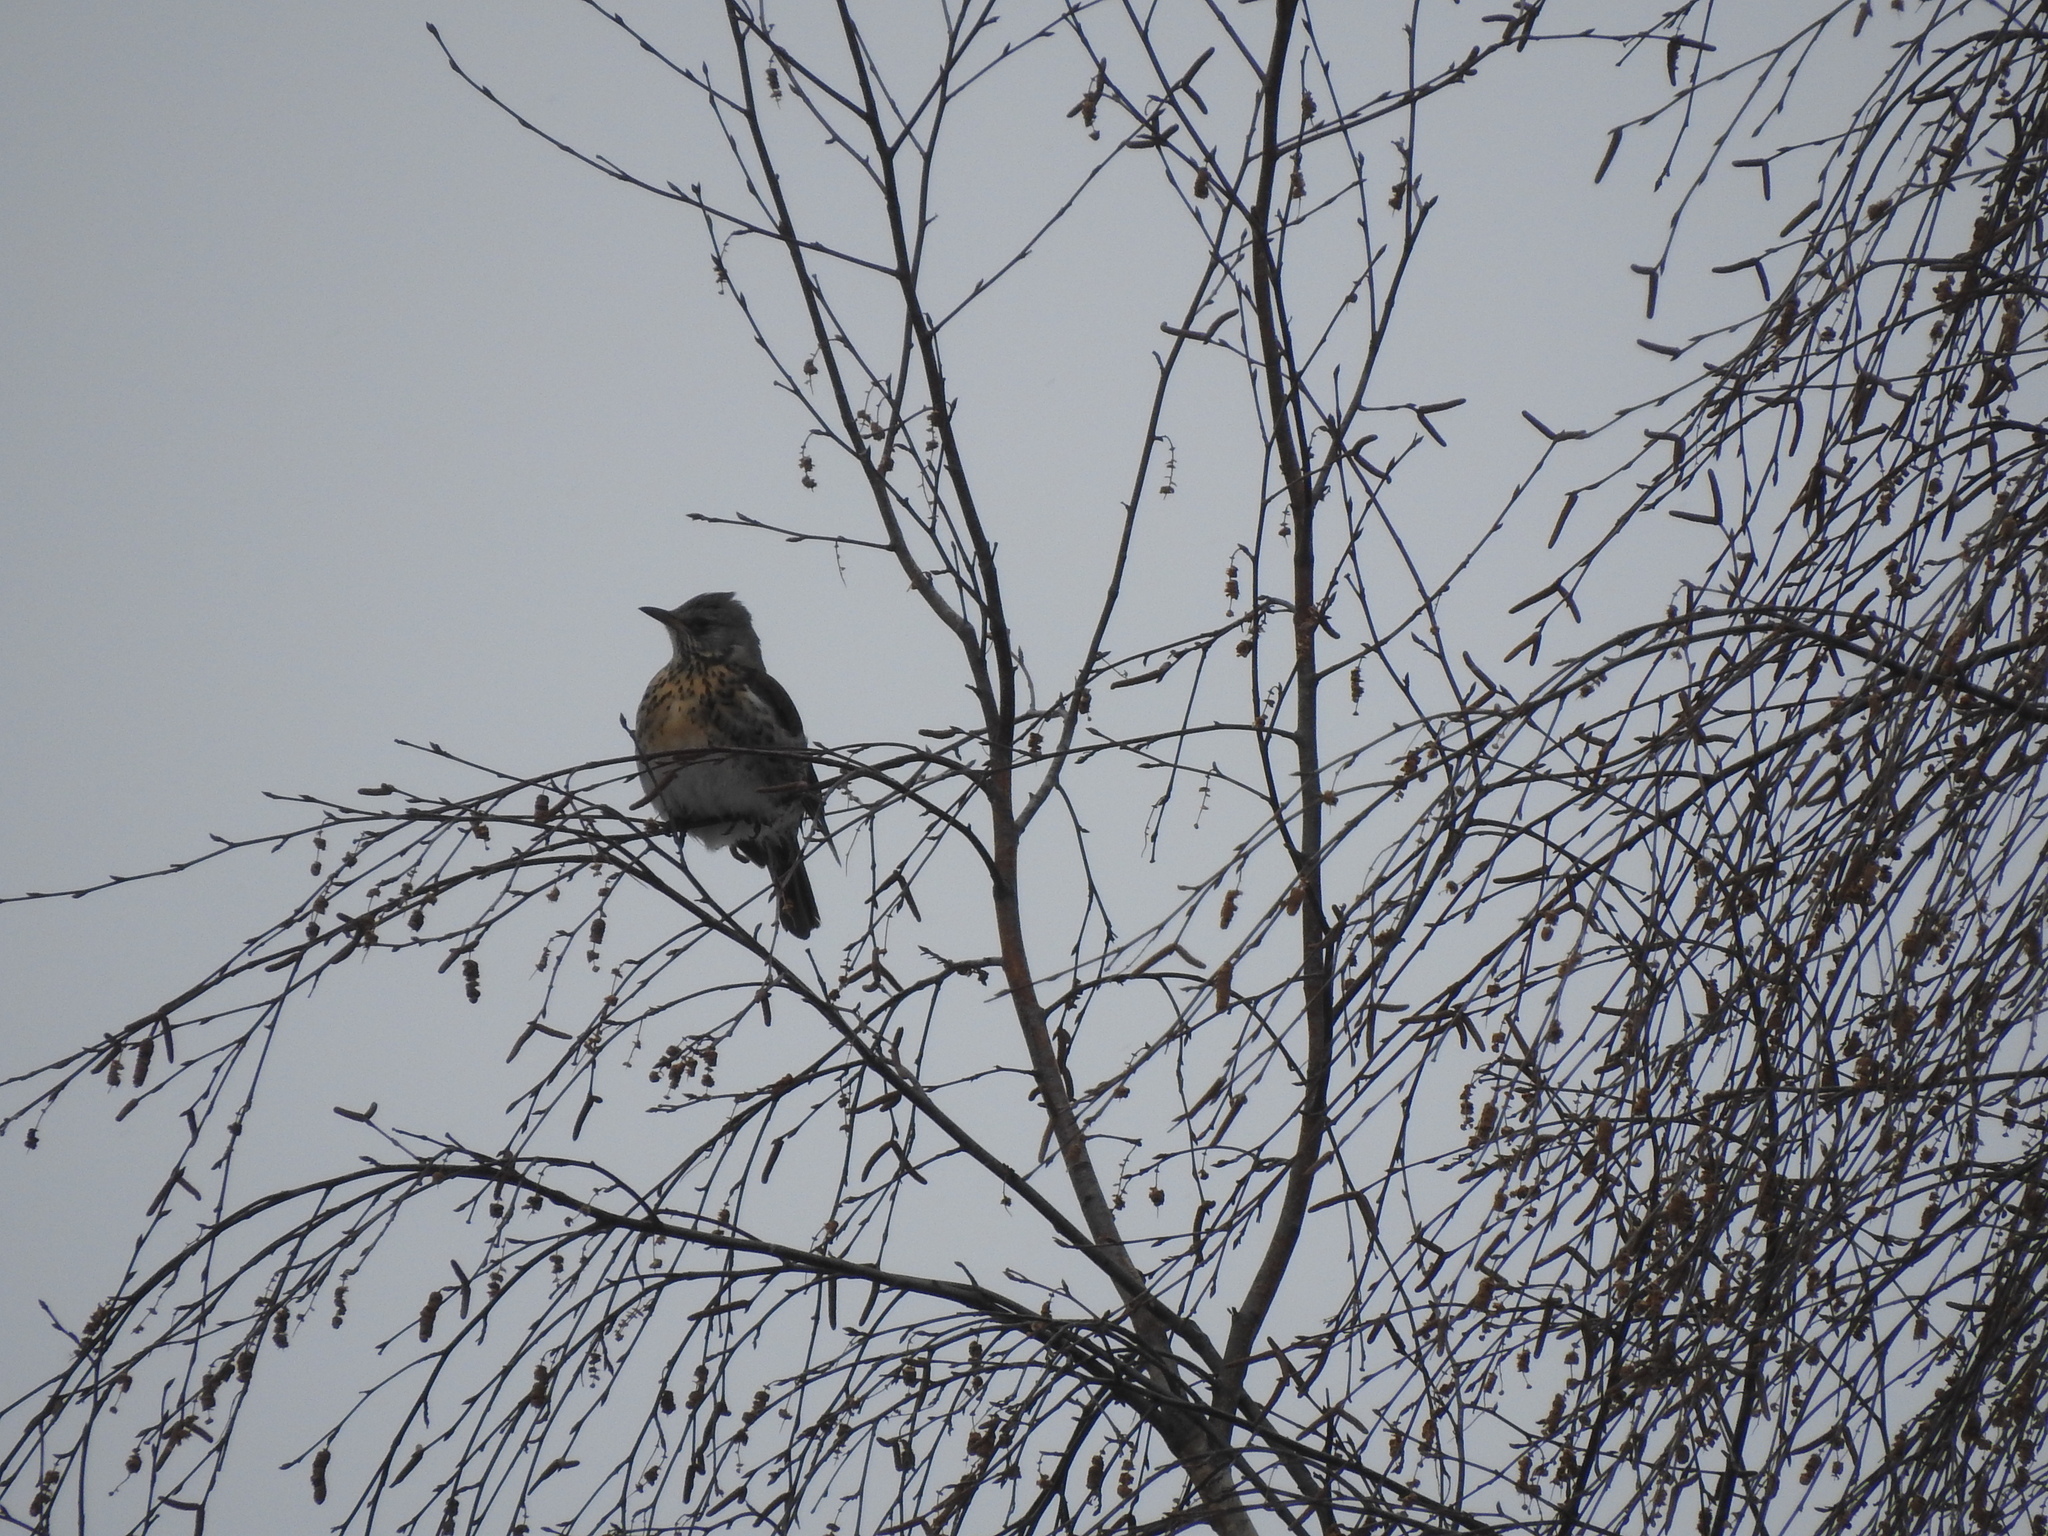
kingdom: Animalia
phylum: Chordata
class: Aves
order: Passeriformes
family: Turdidae
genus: Turdus
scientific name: Turdus pilaris
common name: Fieldfare
